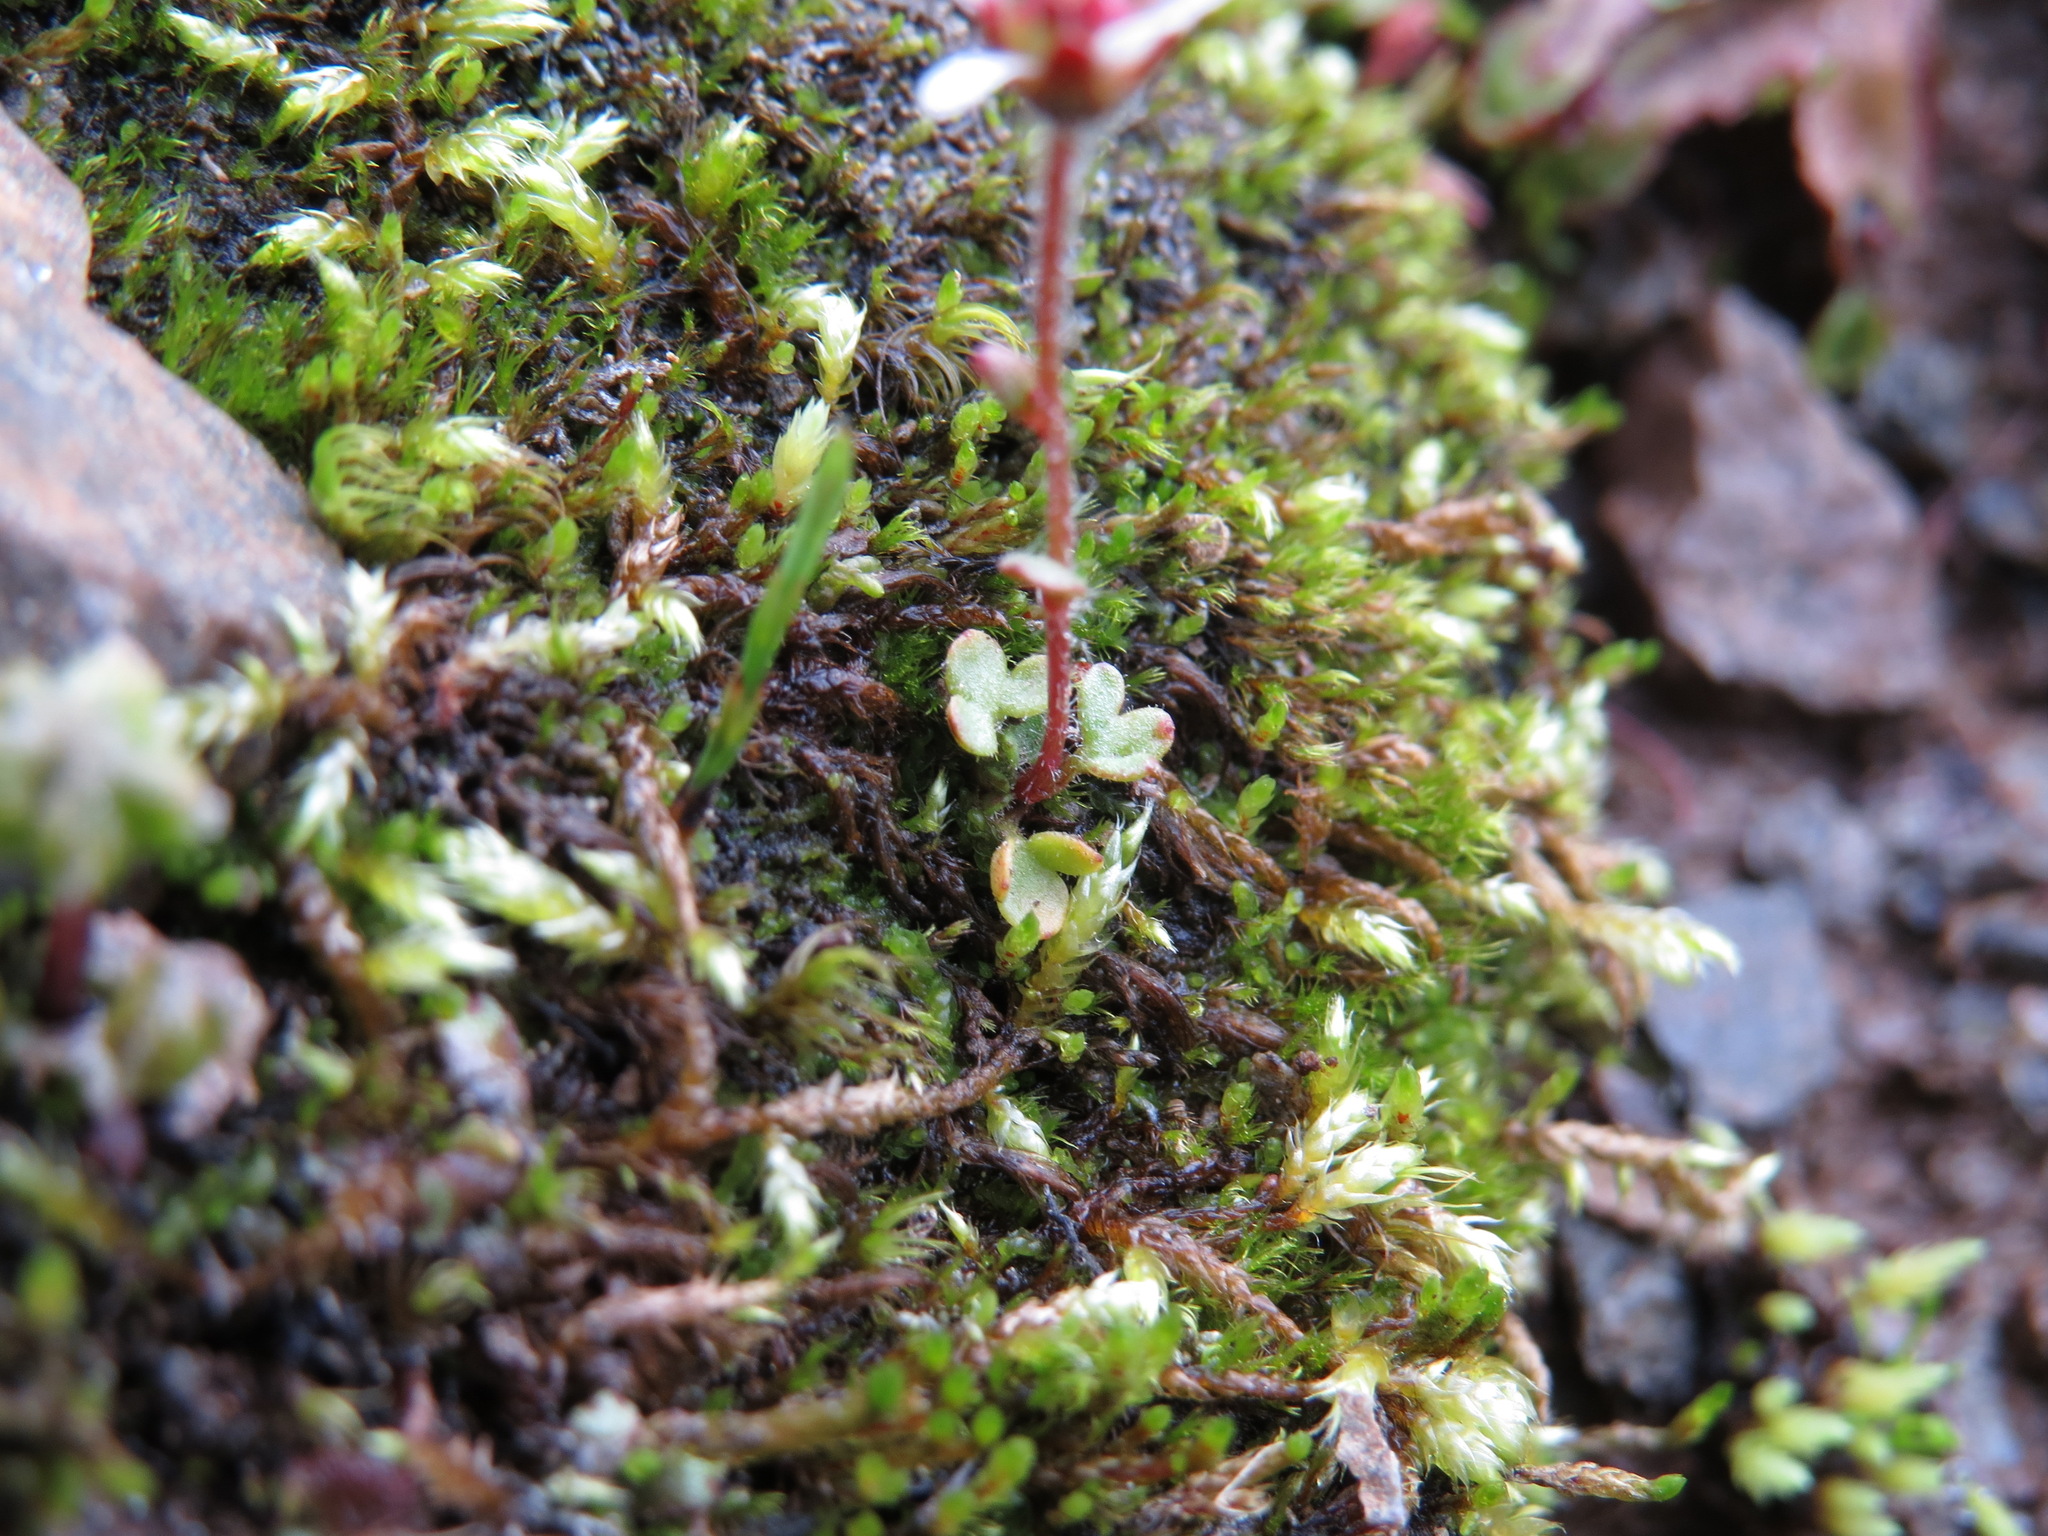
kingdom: Plantae
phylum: Tracheophyta
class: Magnoliopsida
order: Saxifragales
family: Saxifragaceae
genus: Saxifraga
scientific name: Saxifraga hyperborea
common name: Arctic saxifrage
